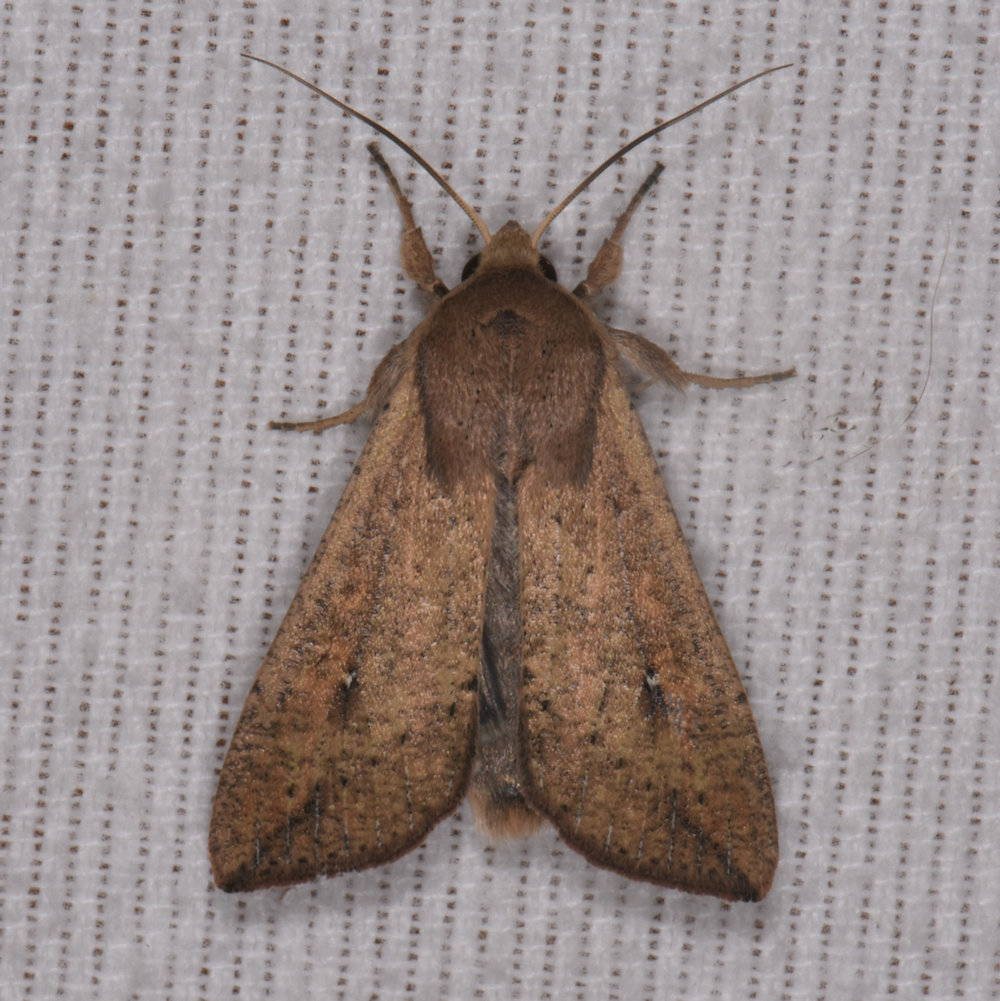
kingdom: Animalia
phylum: Arthropoda
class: Insecta
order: Lepidoptera
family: Noctuidae
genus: Mythimna
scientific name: Mythimna unipuncta
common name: White-speck
